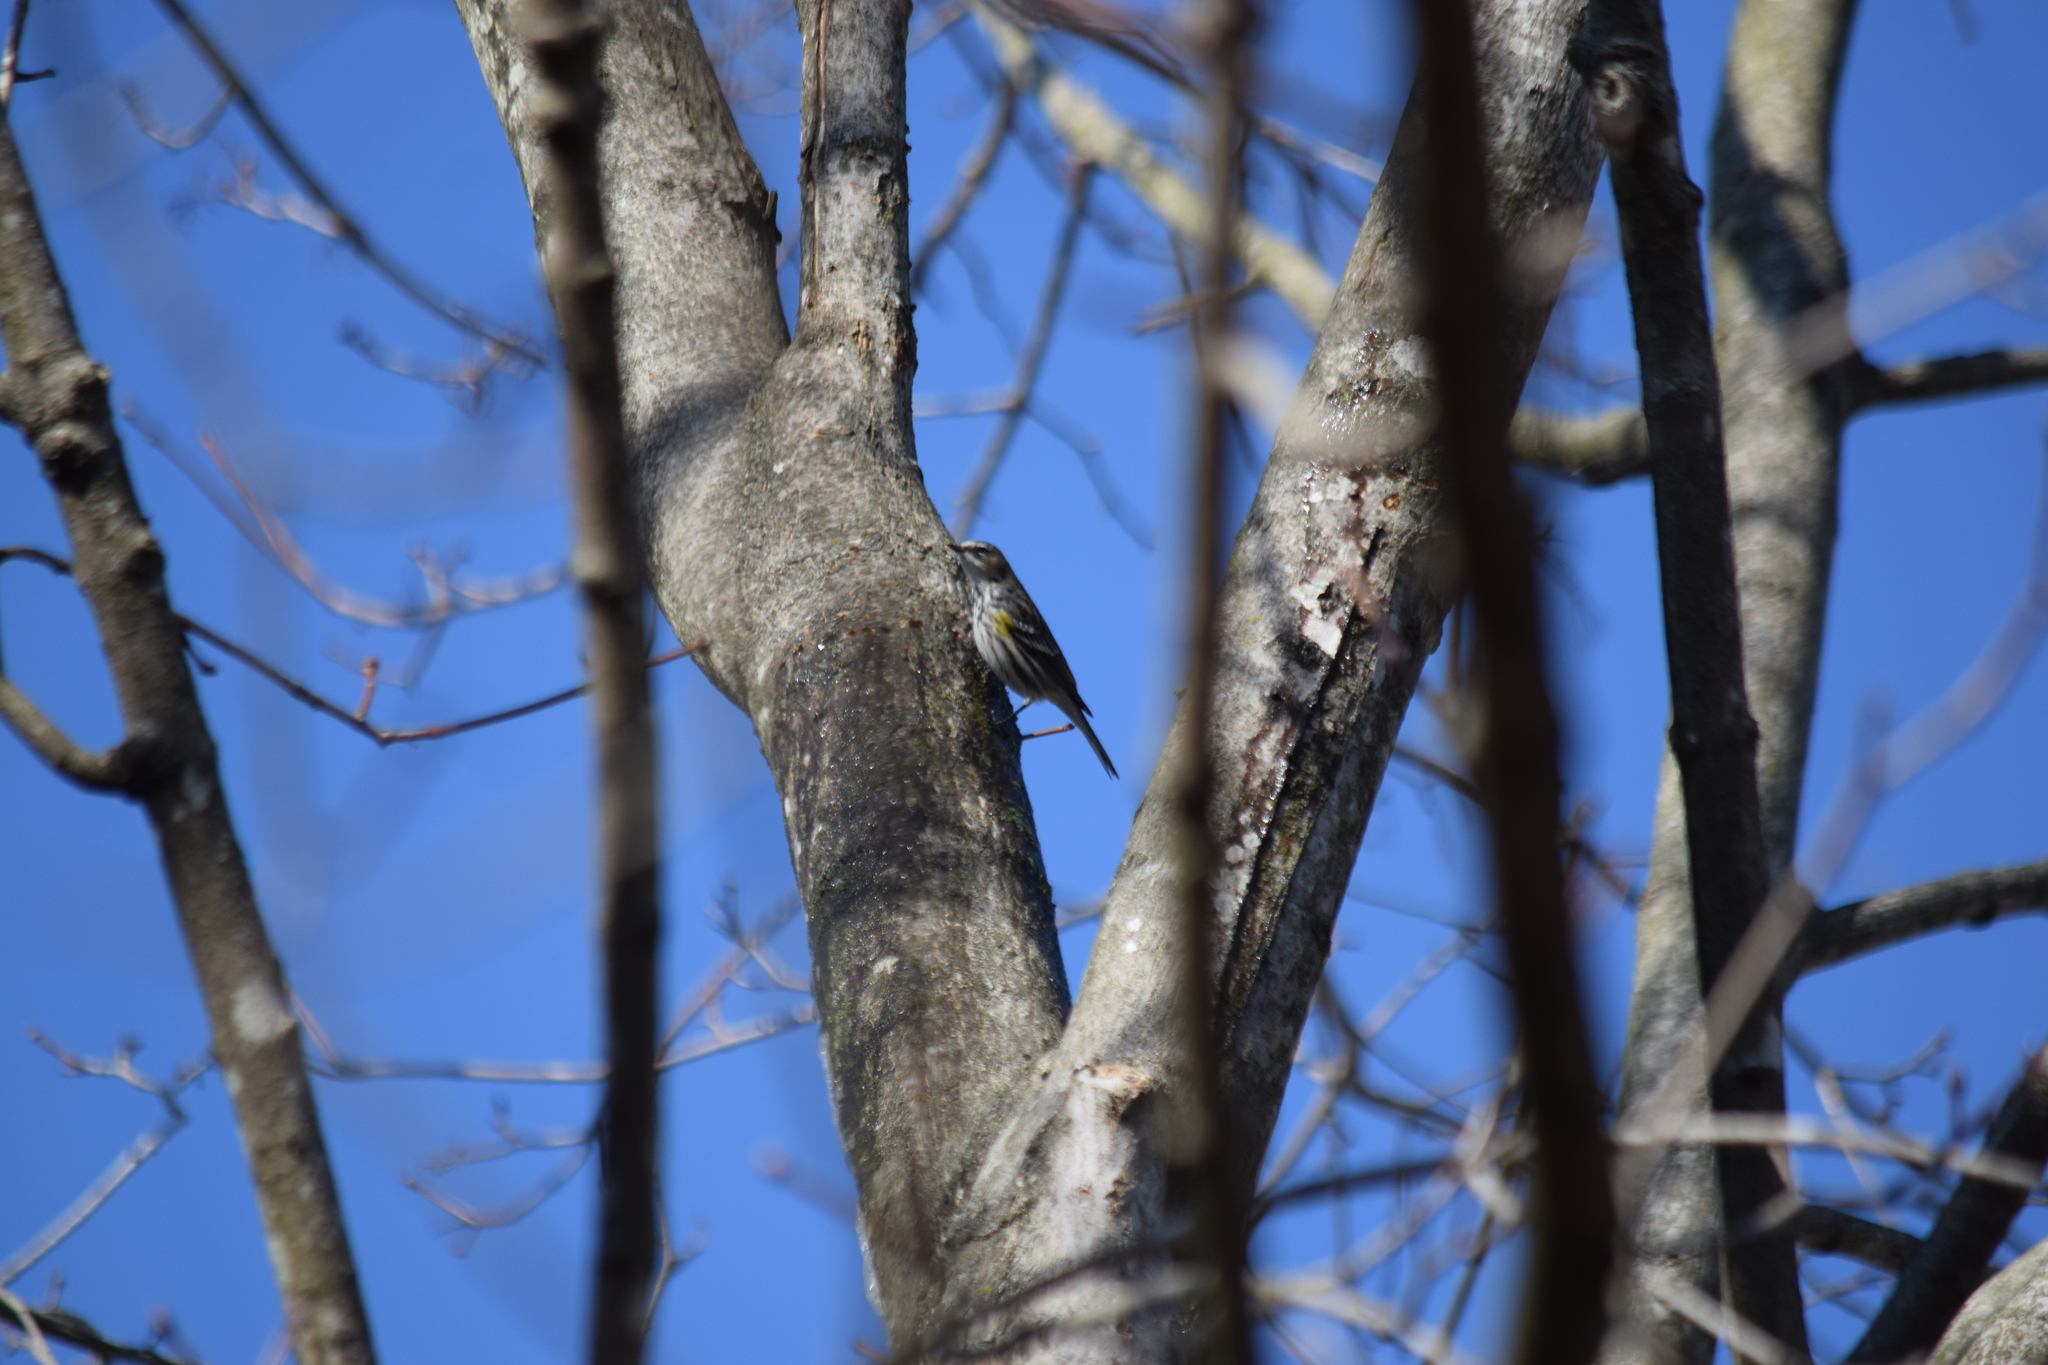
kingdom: Animalia
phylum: Chordata
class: Aves
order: Passeriformes
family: Parulidae
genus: Setophaga
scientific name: Setophaga coronata
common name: Myrtle warbler
